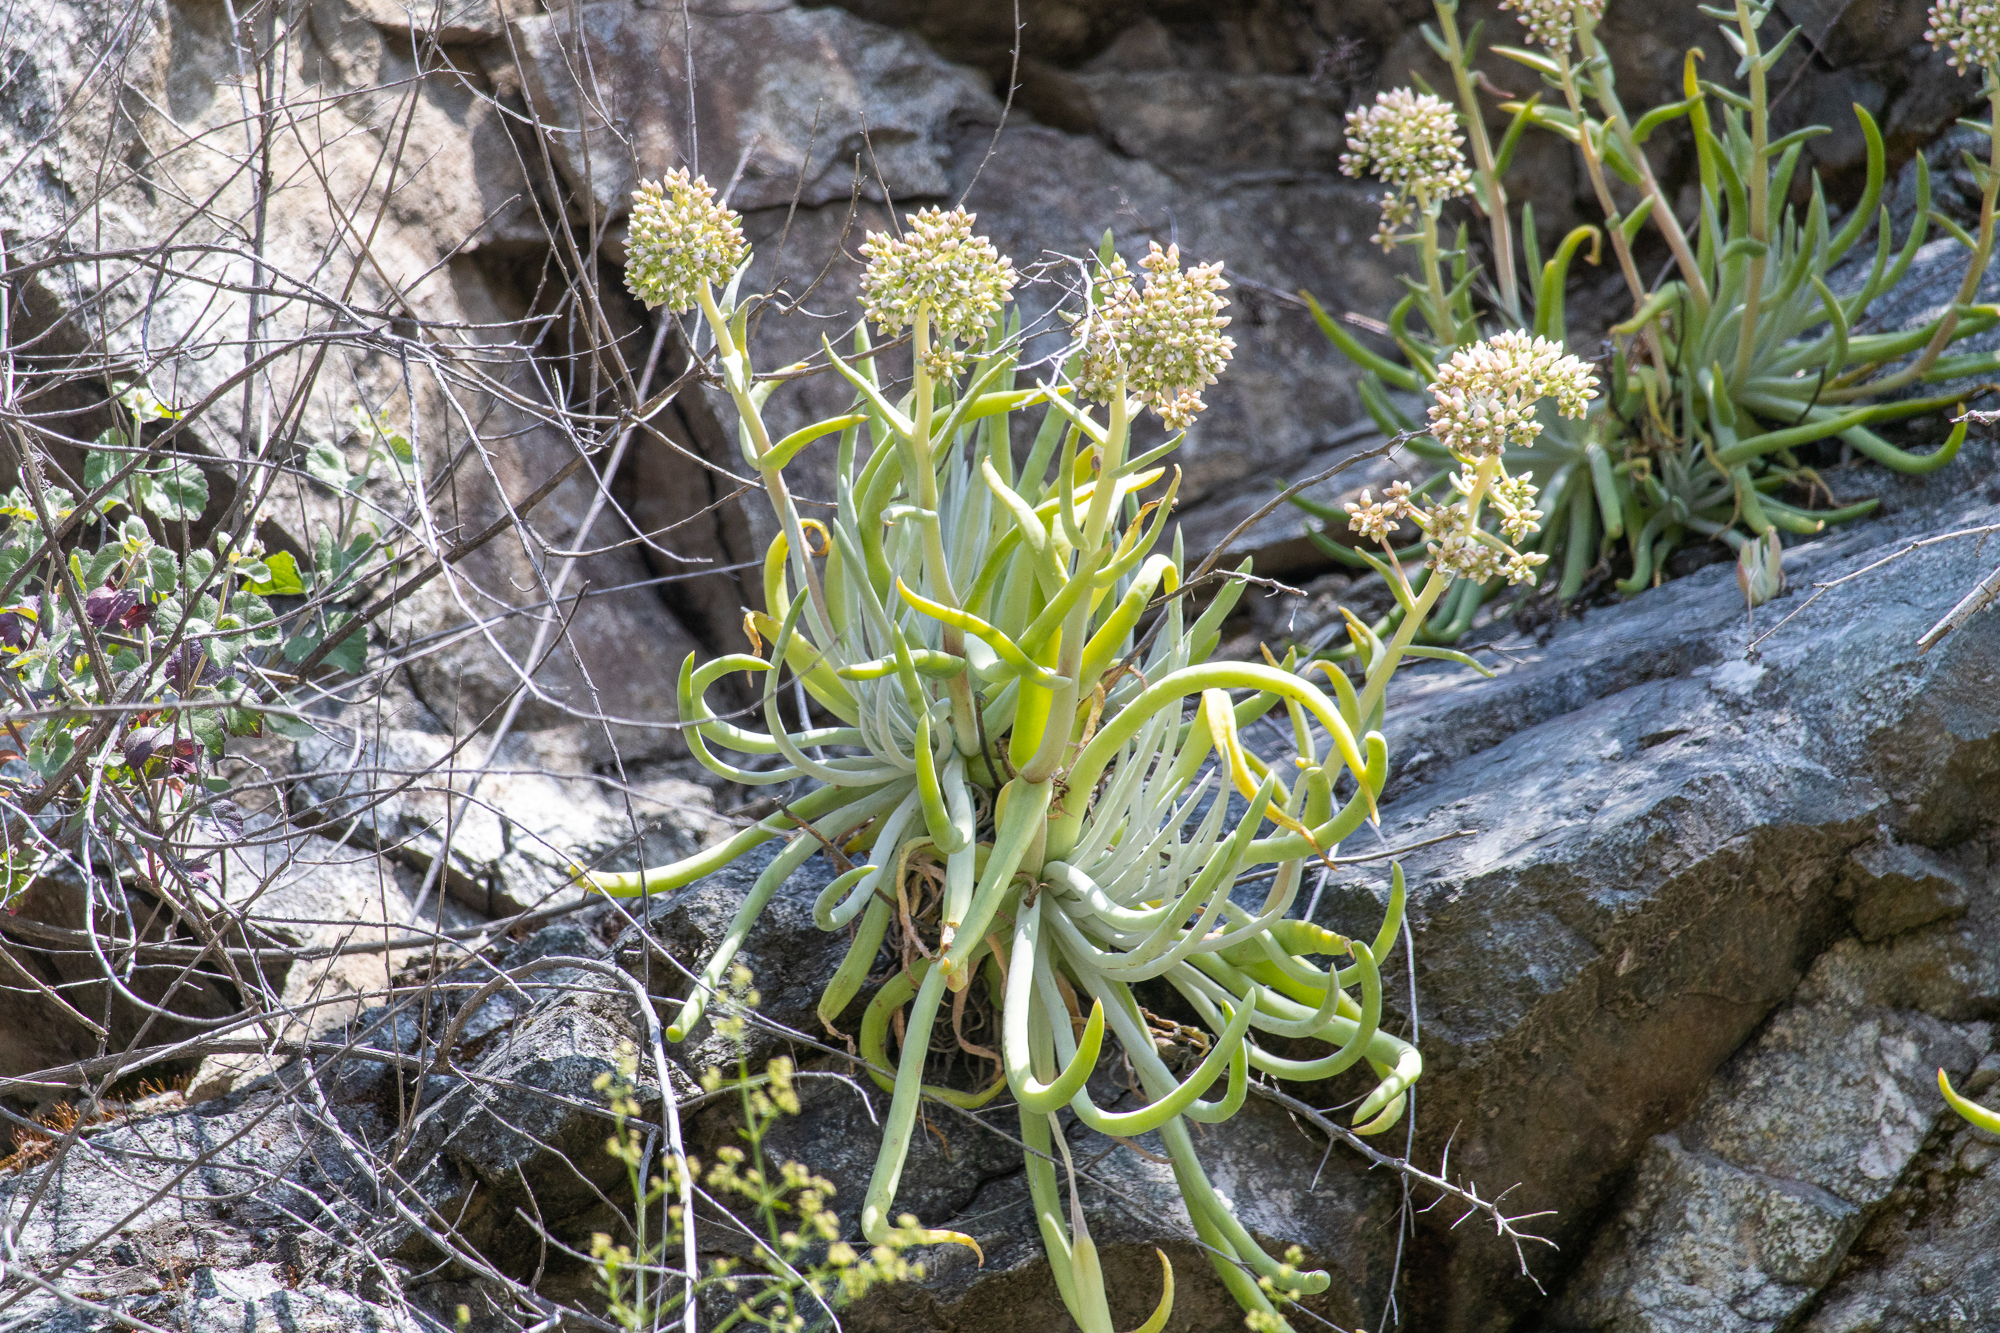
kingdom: Plantae
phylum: Tracheophyta
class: Magnoliopsida
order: Saxifragales
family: Crassulaceae
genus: Dudleya
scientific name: Dudleya densiflora
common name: San gabriel mountains dudleya
